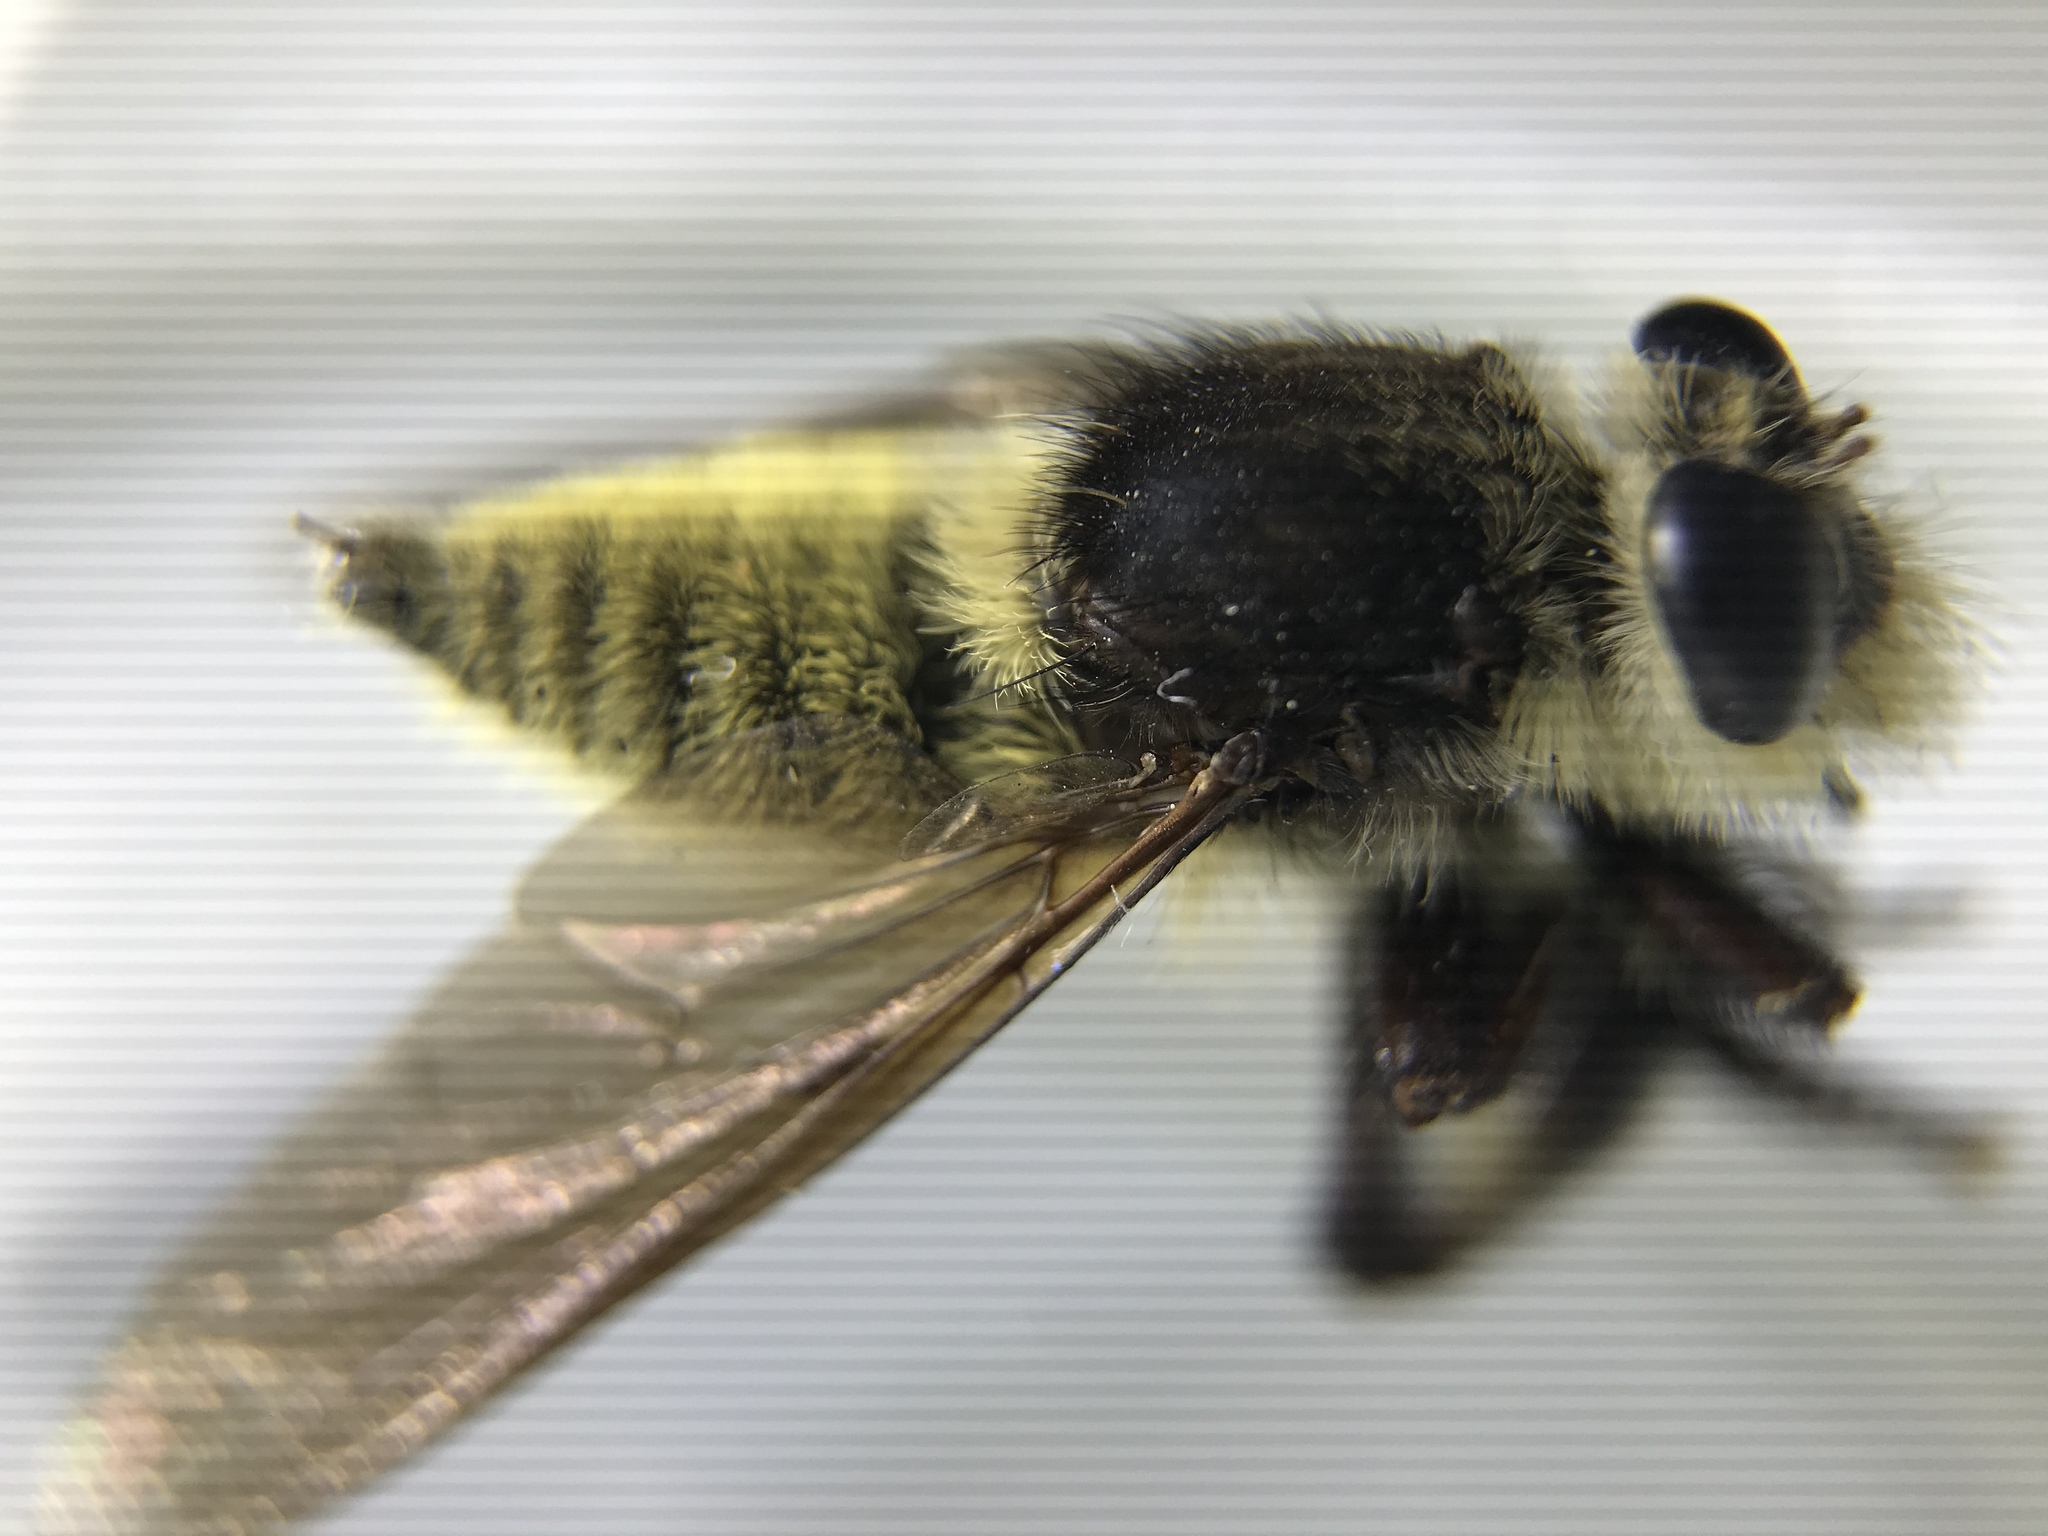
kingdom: Animalia
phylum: Arthropoda
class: Insecta
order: Diptera
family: Asilidae
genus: Mallophora
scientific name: Mallophora fautrix
